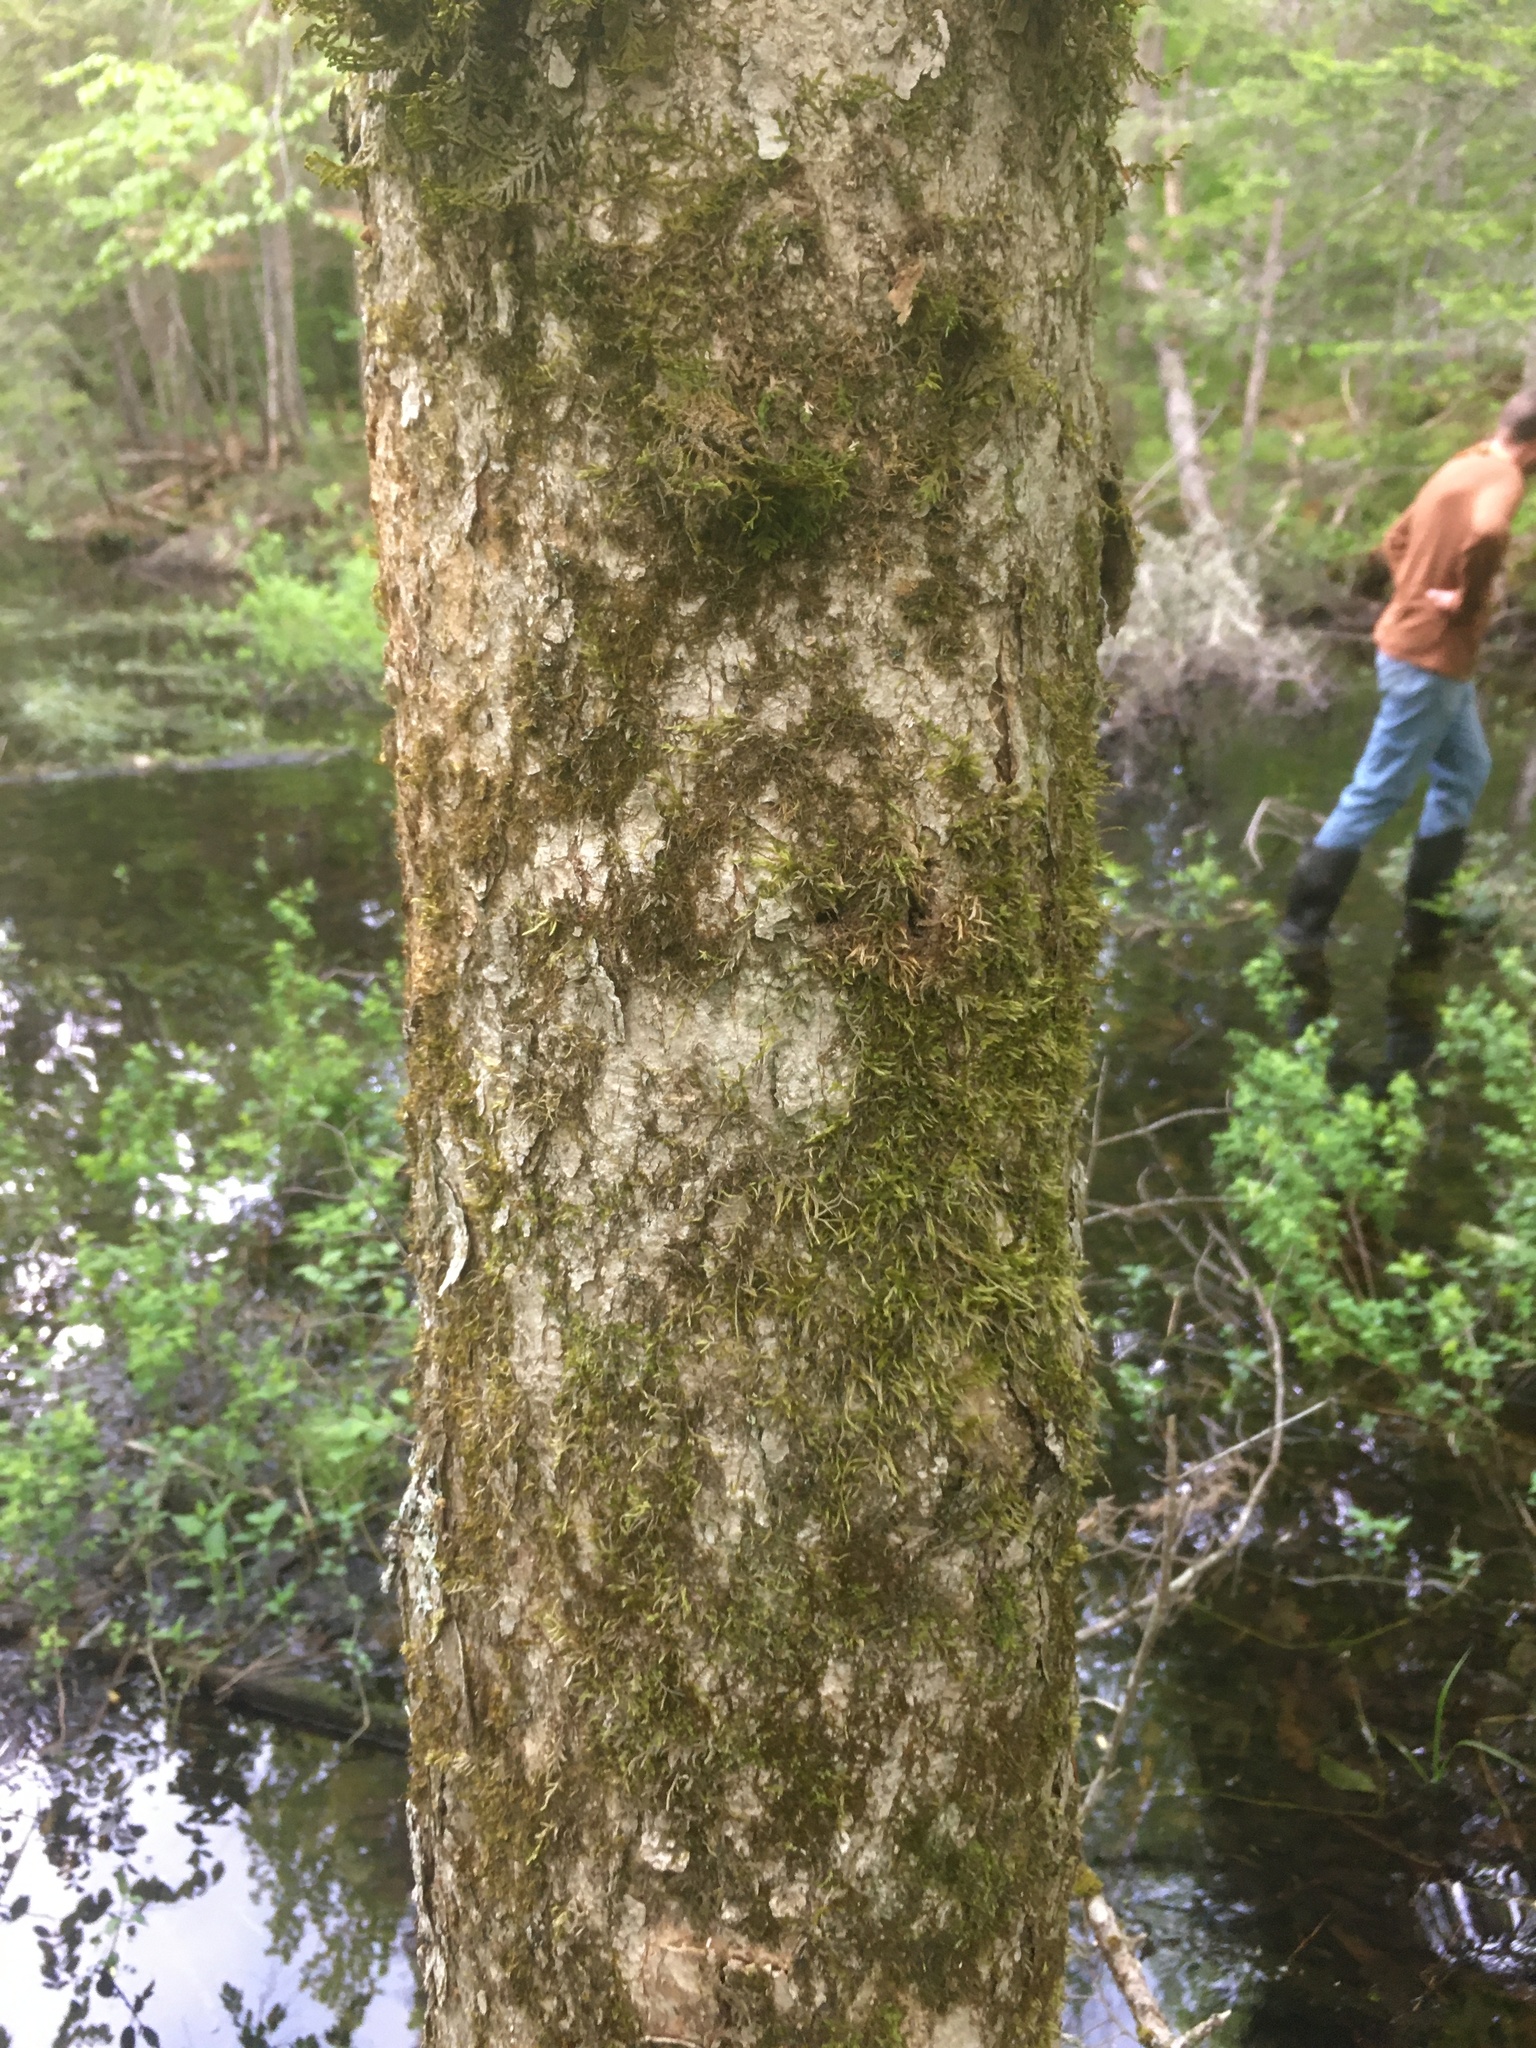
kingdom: Plantae
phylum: Tracheophyta
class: Magnoliopsida
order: Lamiales
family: Oleaceae
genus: Fraxinus
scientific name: Fraxinus nigra
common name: Black ash
